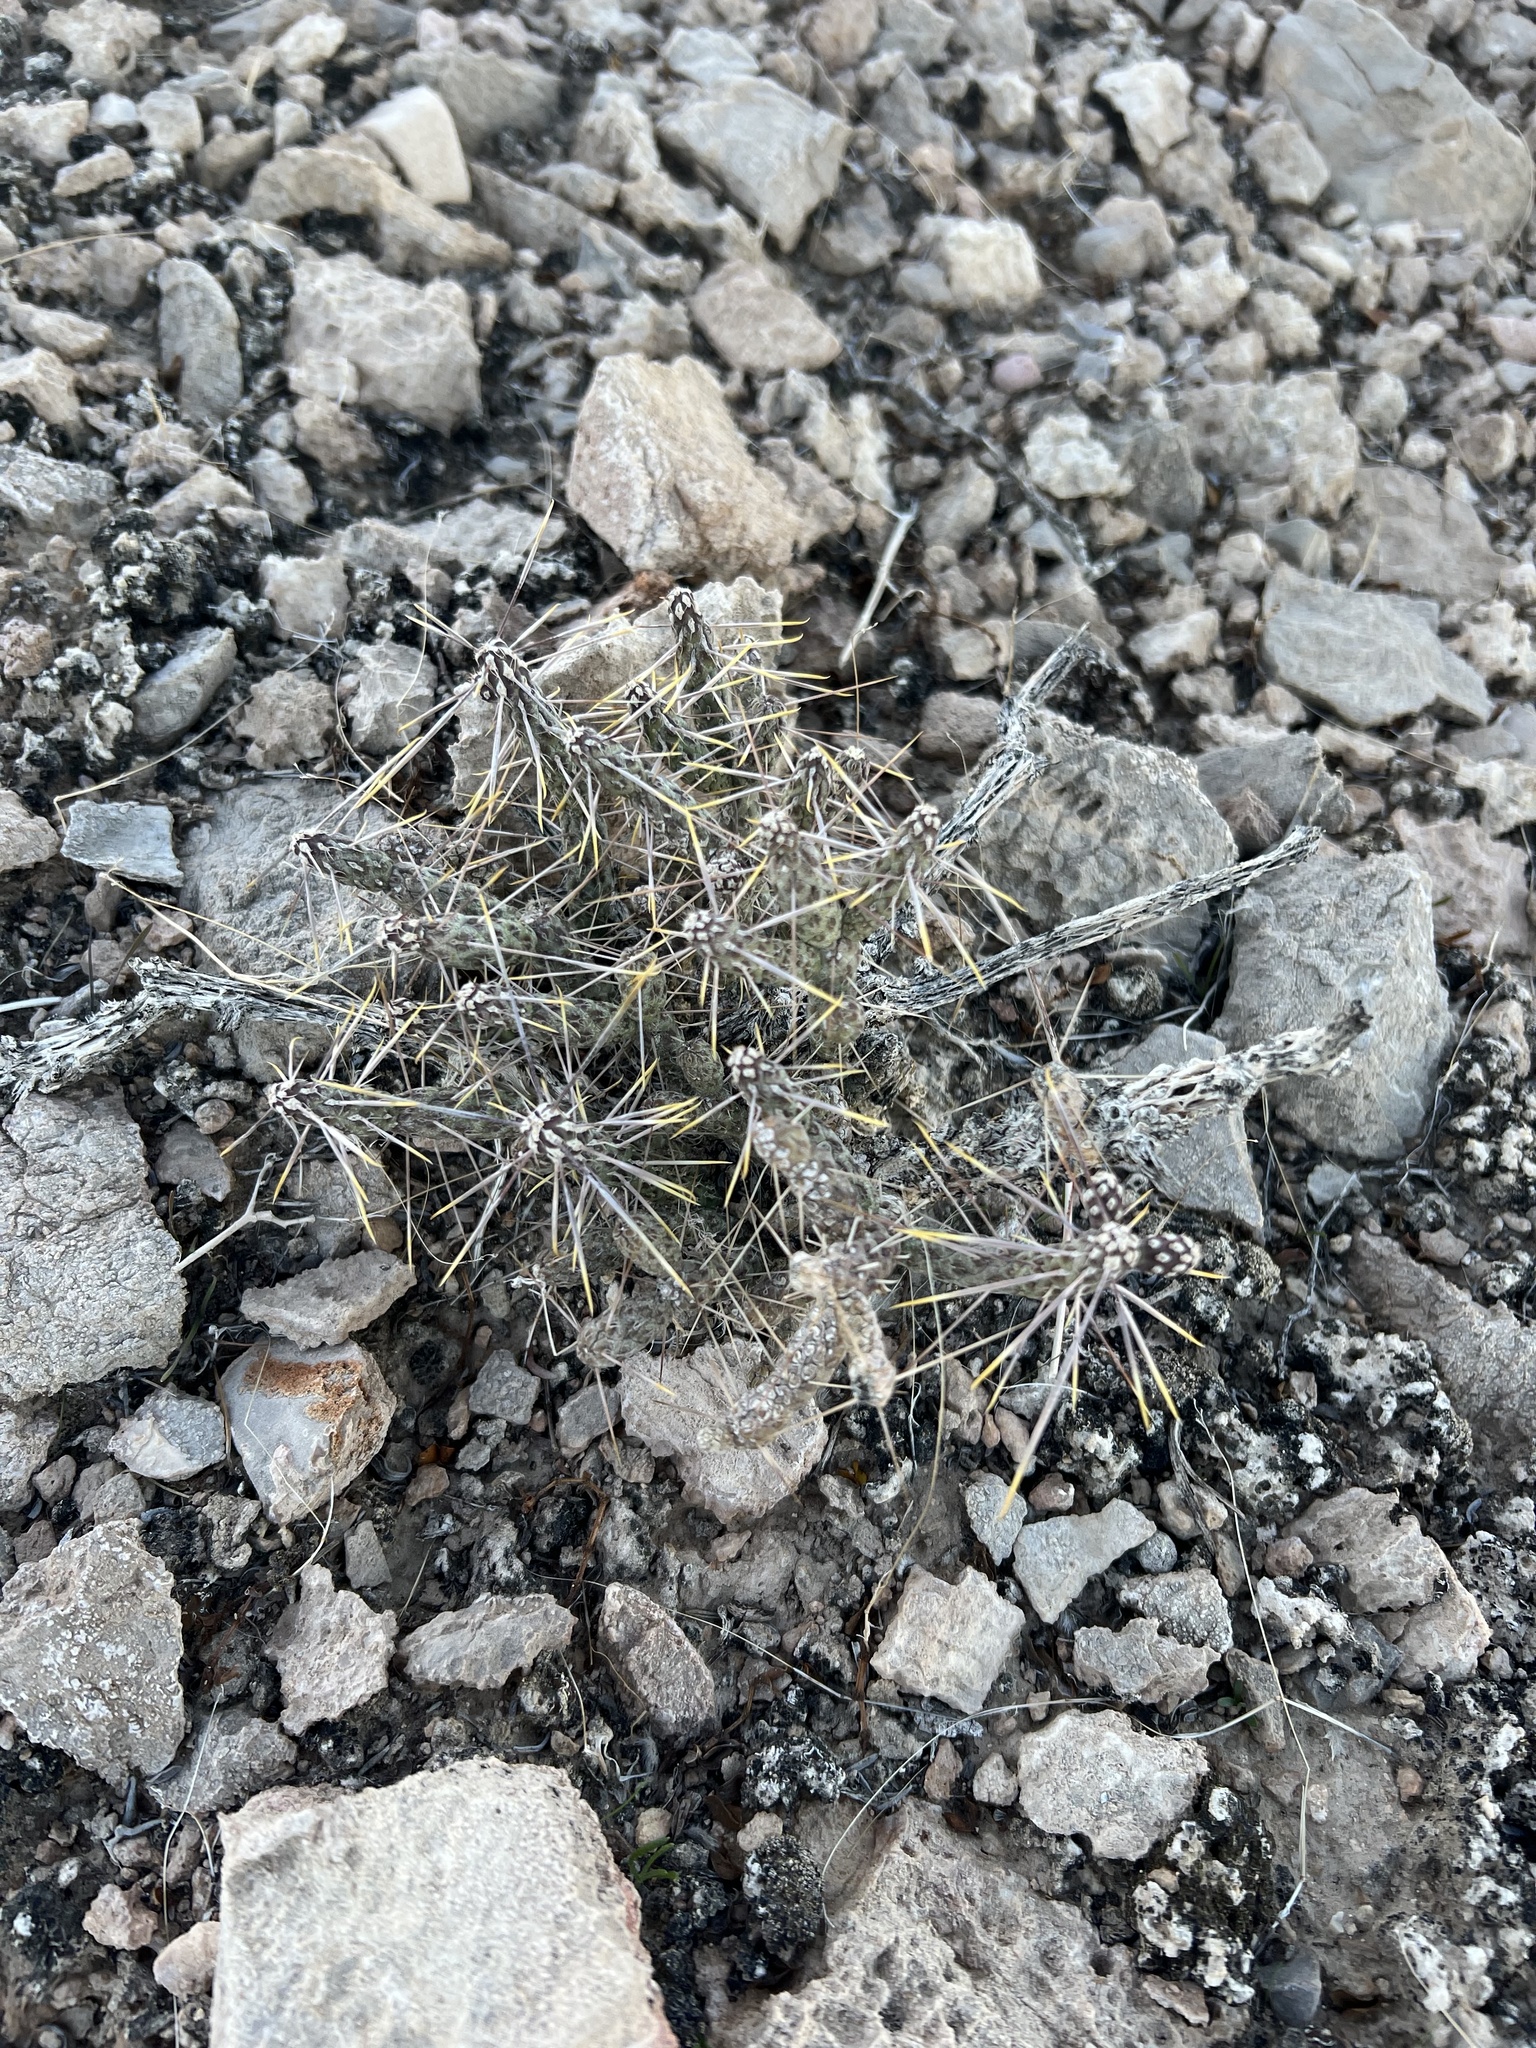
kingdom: Plantae
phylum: Tracheophyta
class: Magnoliopsida
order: Caryophyllales
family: Cactaceae
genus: Cylindropuntia
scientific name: Cylindropuntia ramosissima
